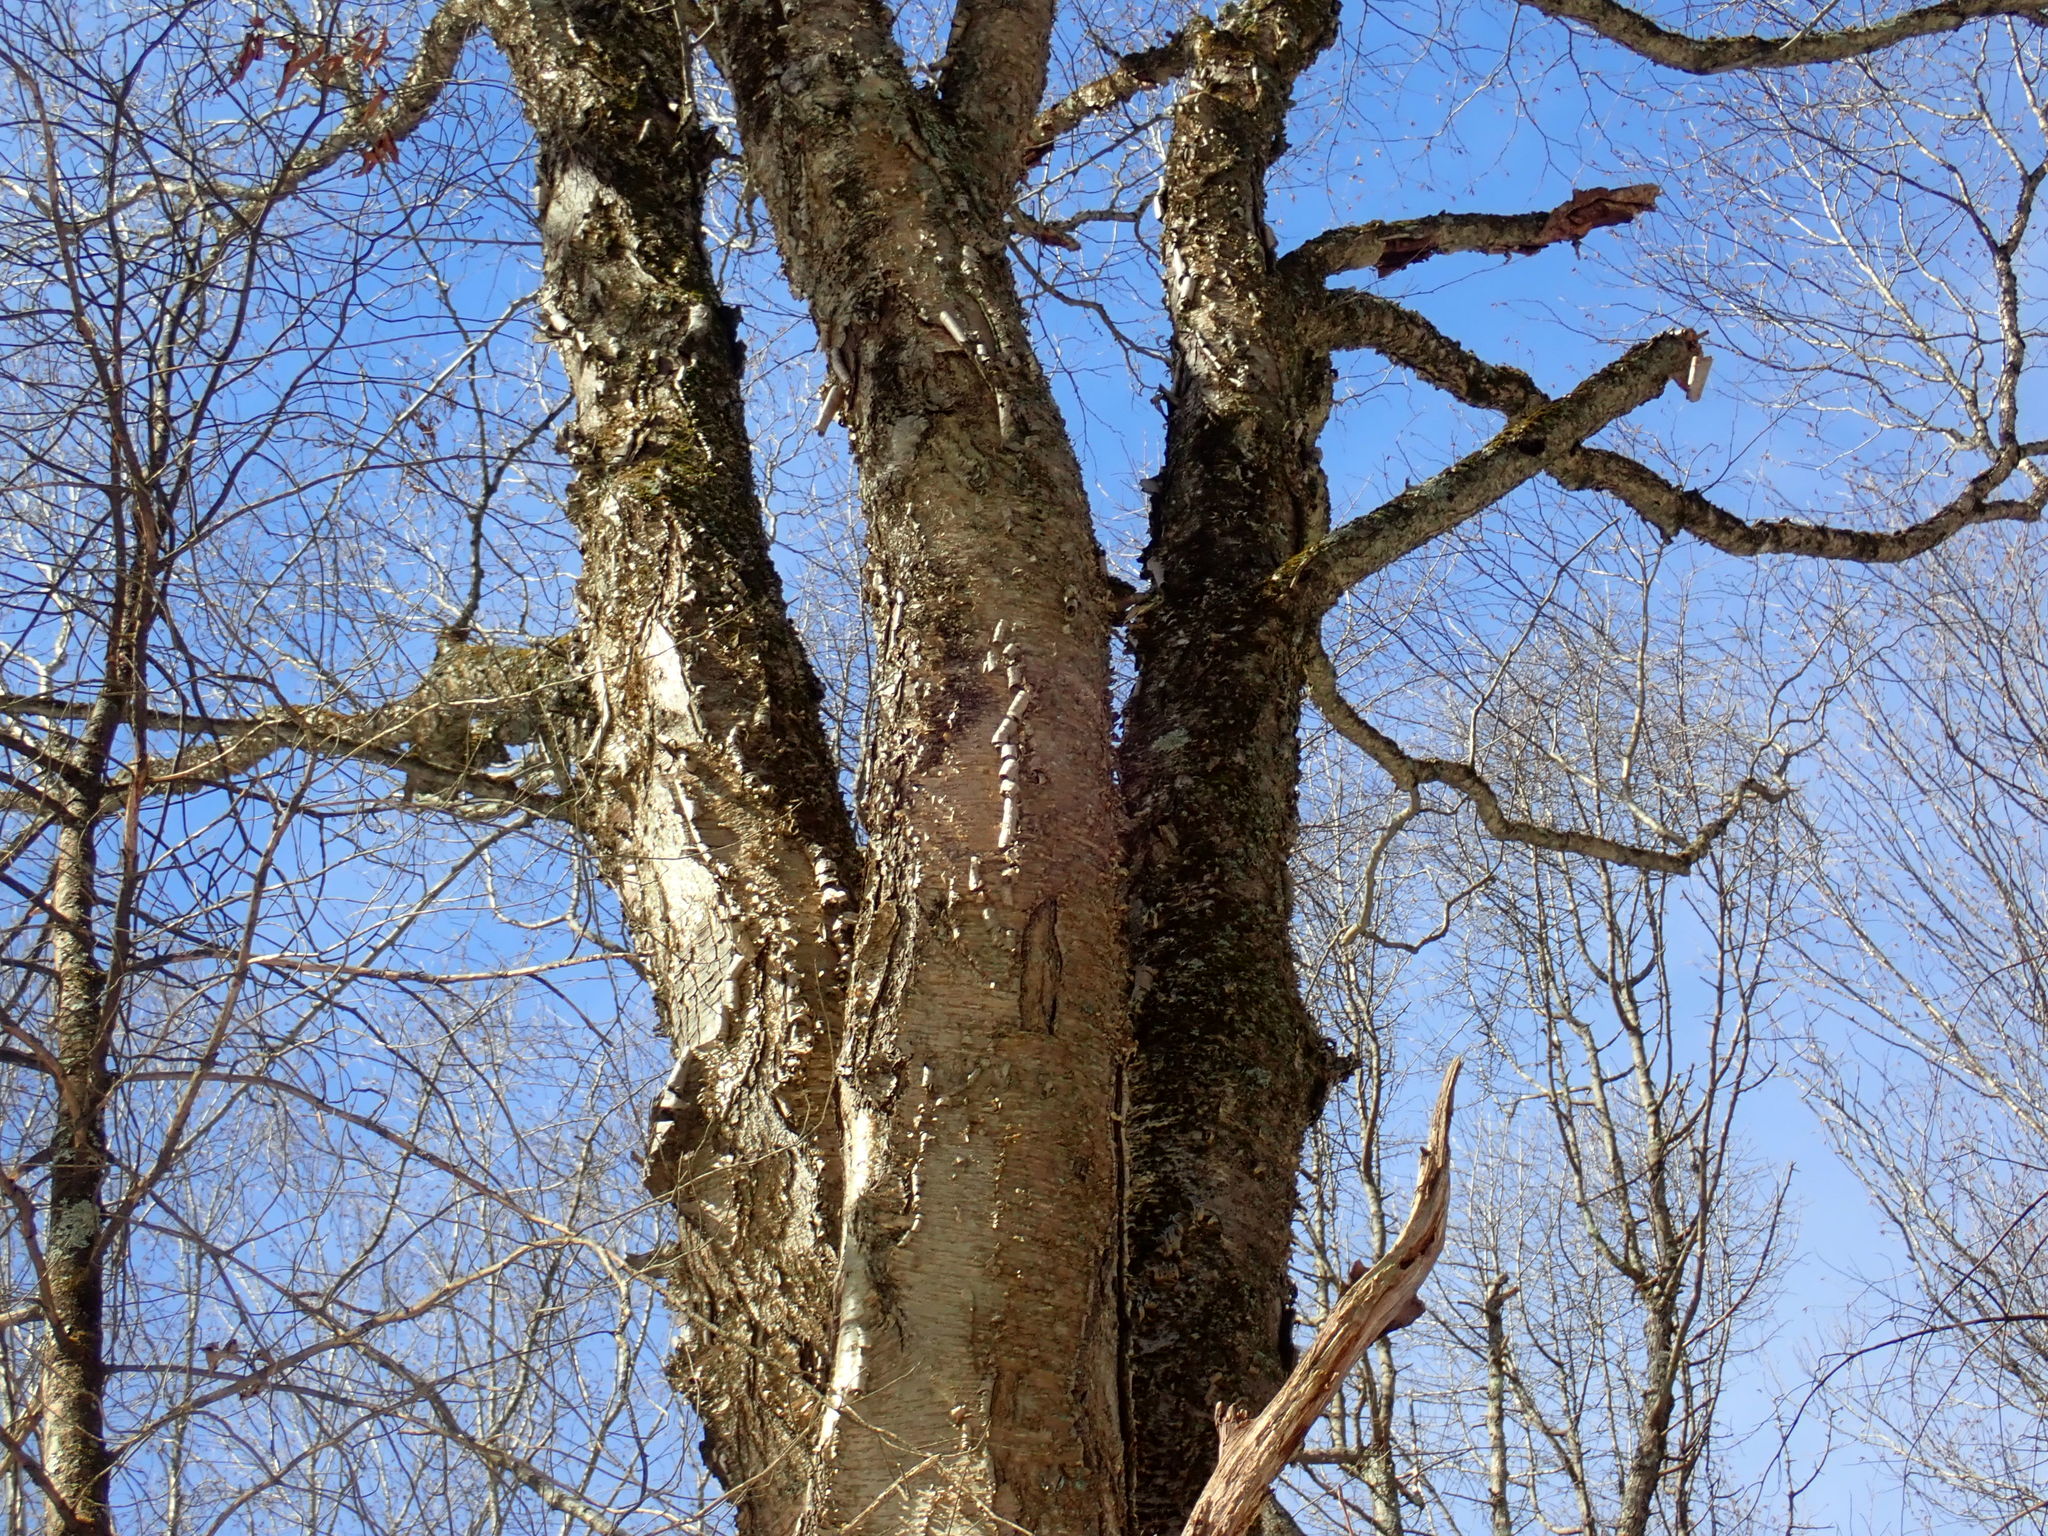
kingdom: Plantae
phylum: Tracheophyta
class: Magnoliopsida
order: Fagales
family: Betulaceae
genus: Betula
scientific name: Betula alleghaniensis
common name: Yellow birch
